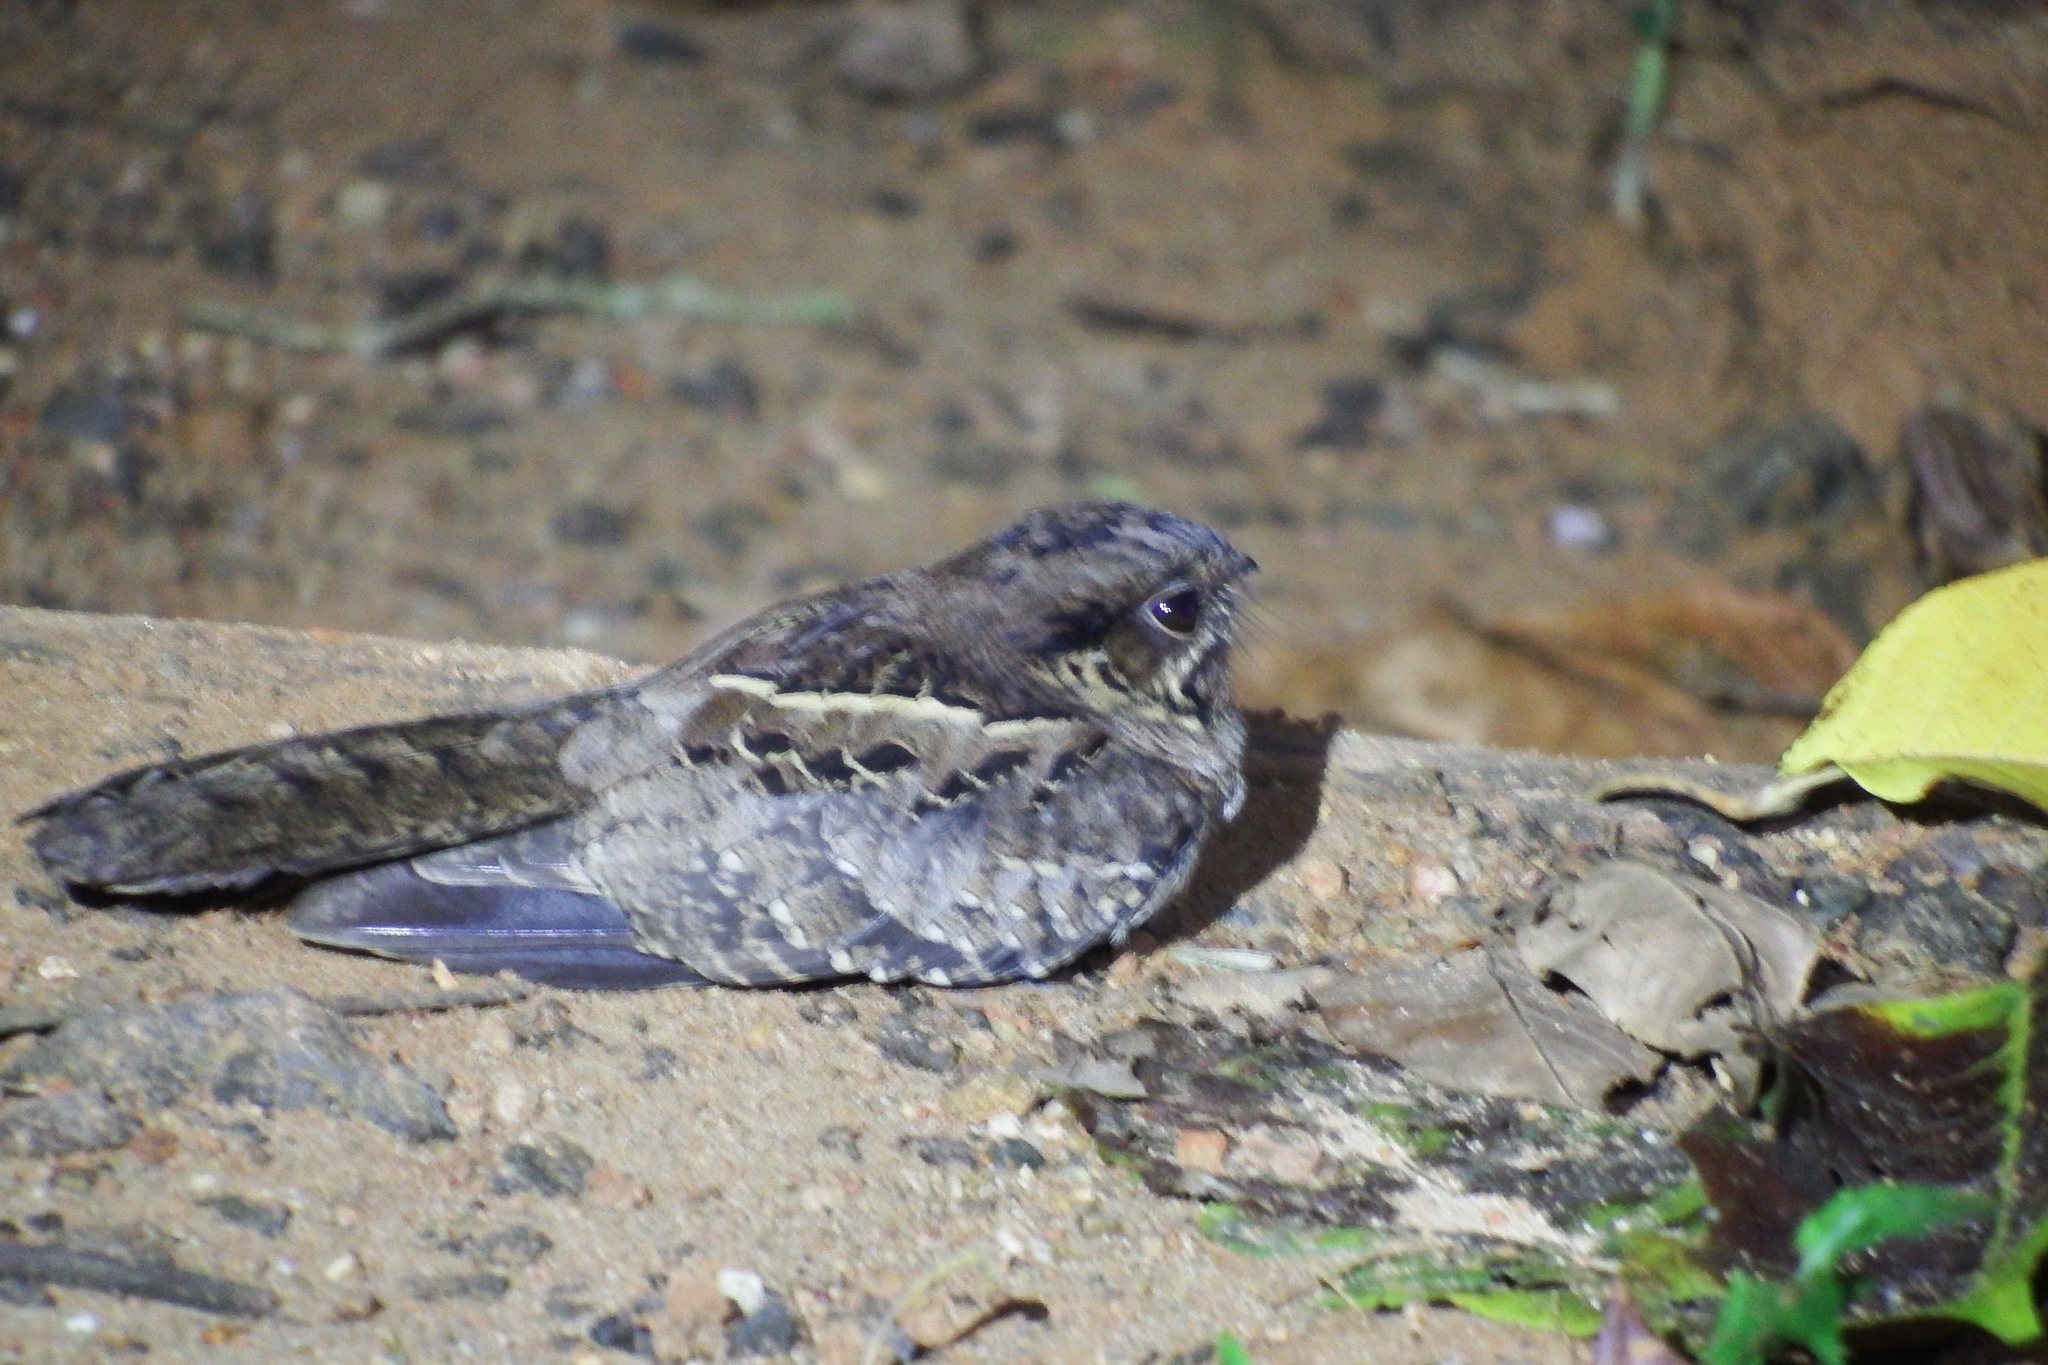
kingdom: Animalia
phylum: Chordata
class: Aves
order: Caprimulgiformes
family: Caprimulgidae
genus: Nyctidromus
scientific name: Nyctidromus albicollis
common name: Pauraque
